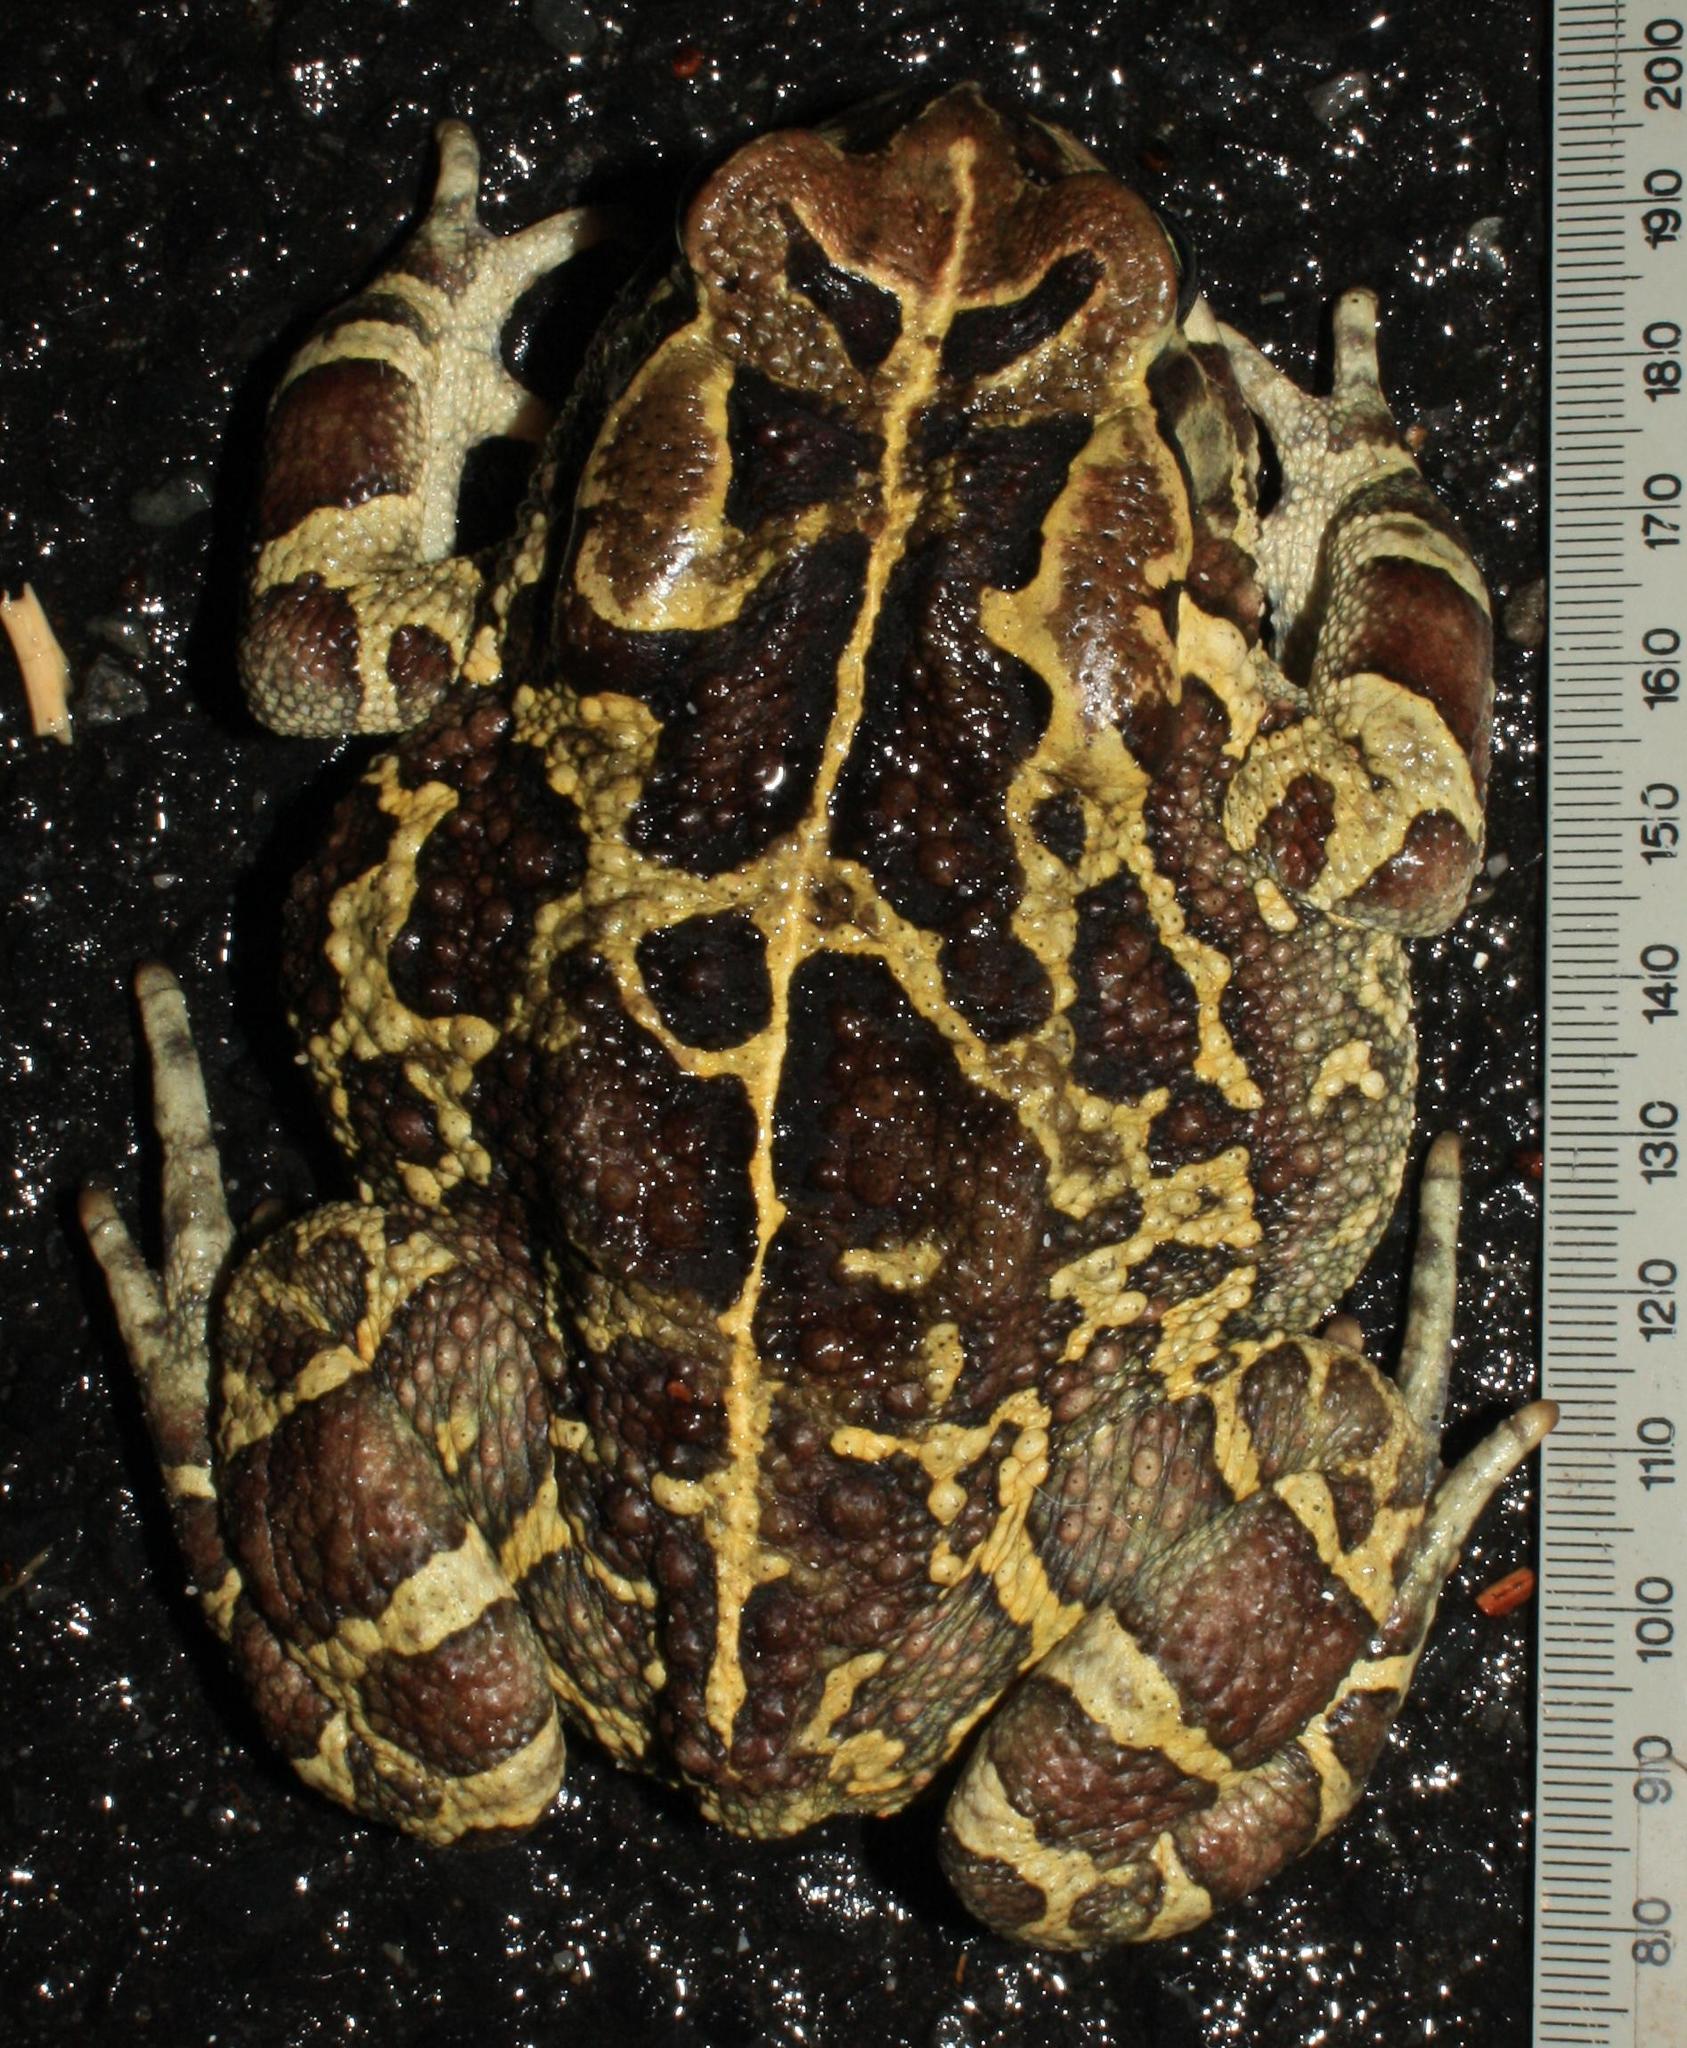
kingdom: Animalia
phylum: Chordata
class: Amphibia
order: Anura
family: Bufonidae
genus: Sclerophrys
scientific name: Sclerophrys pantherina
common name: Panther toad
